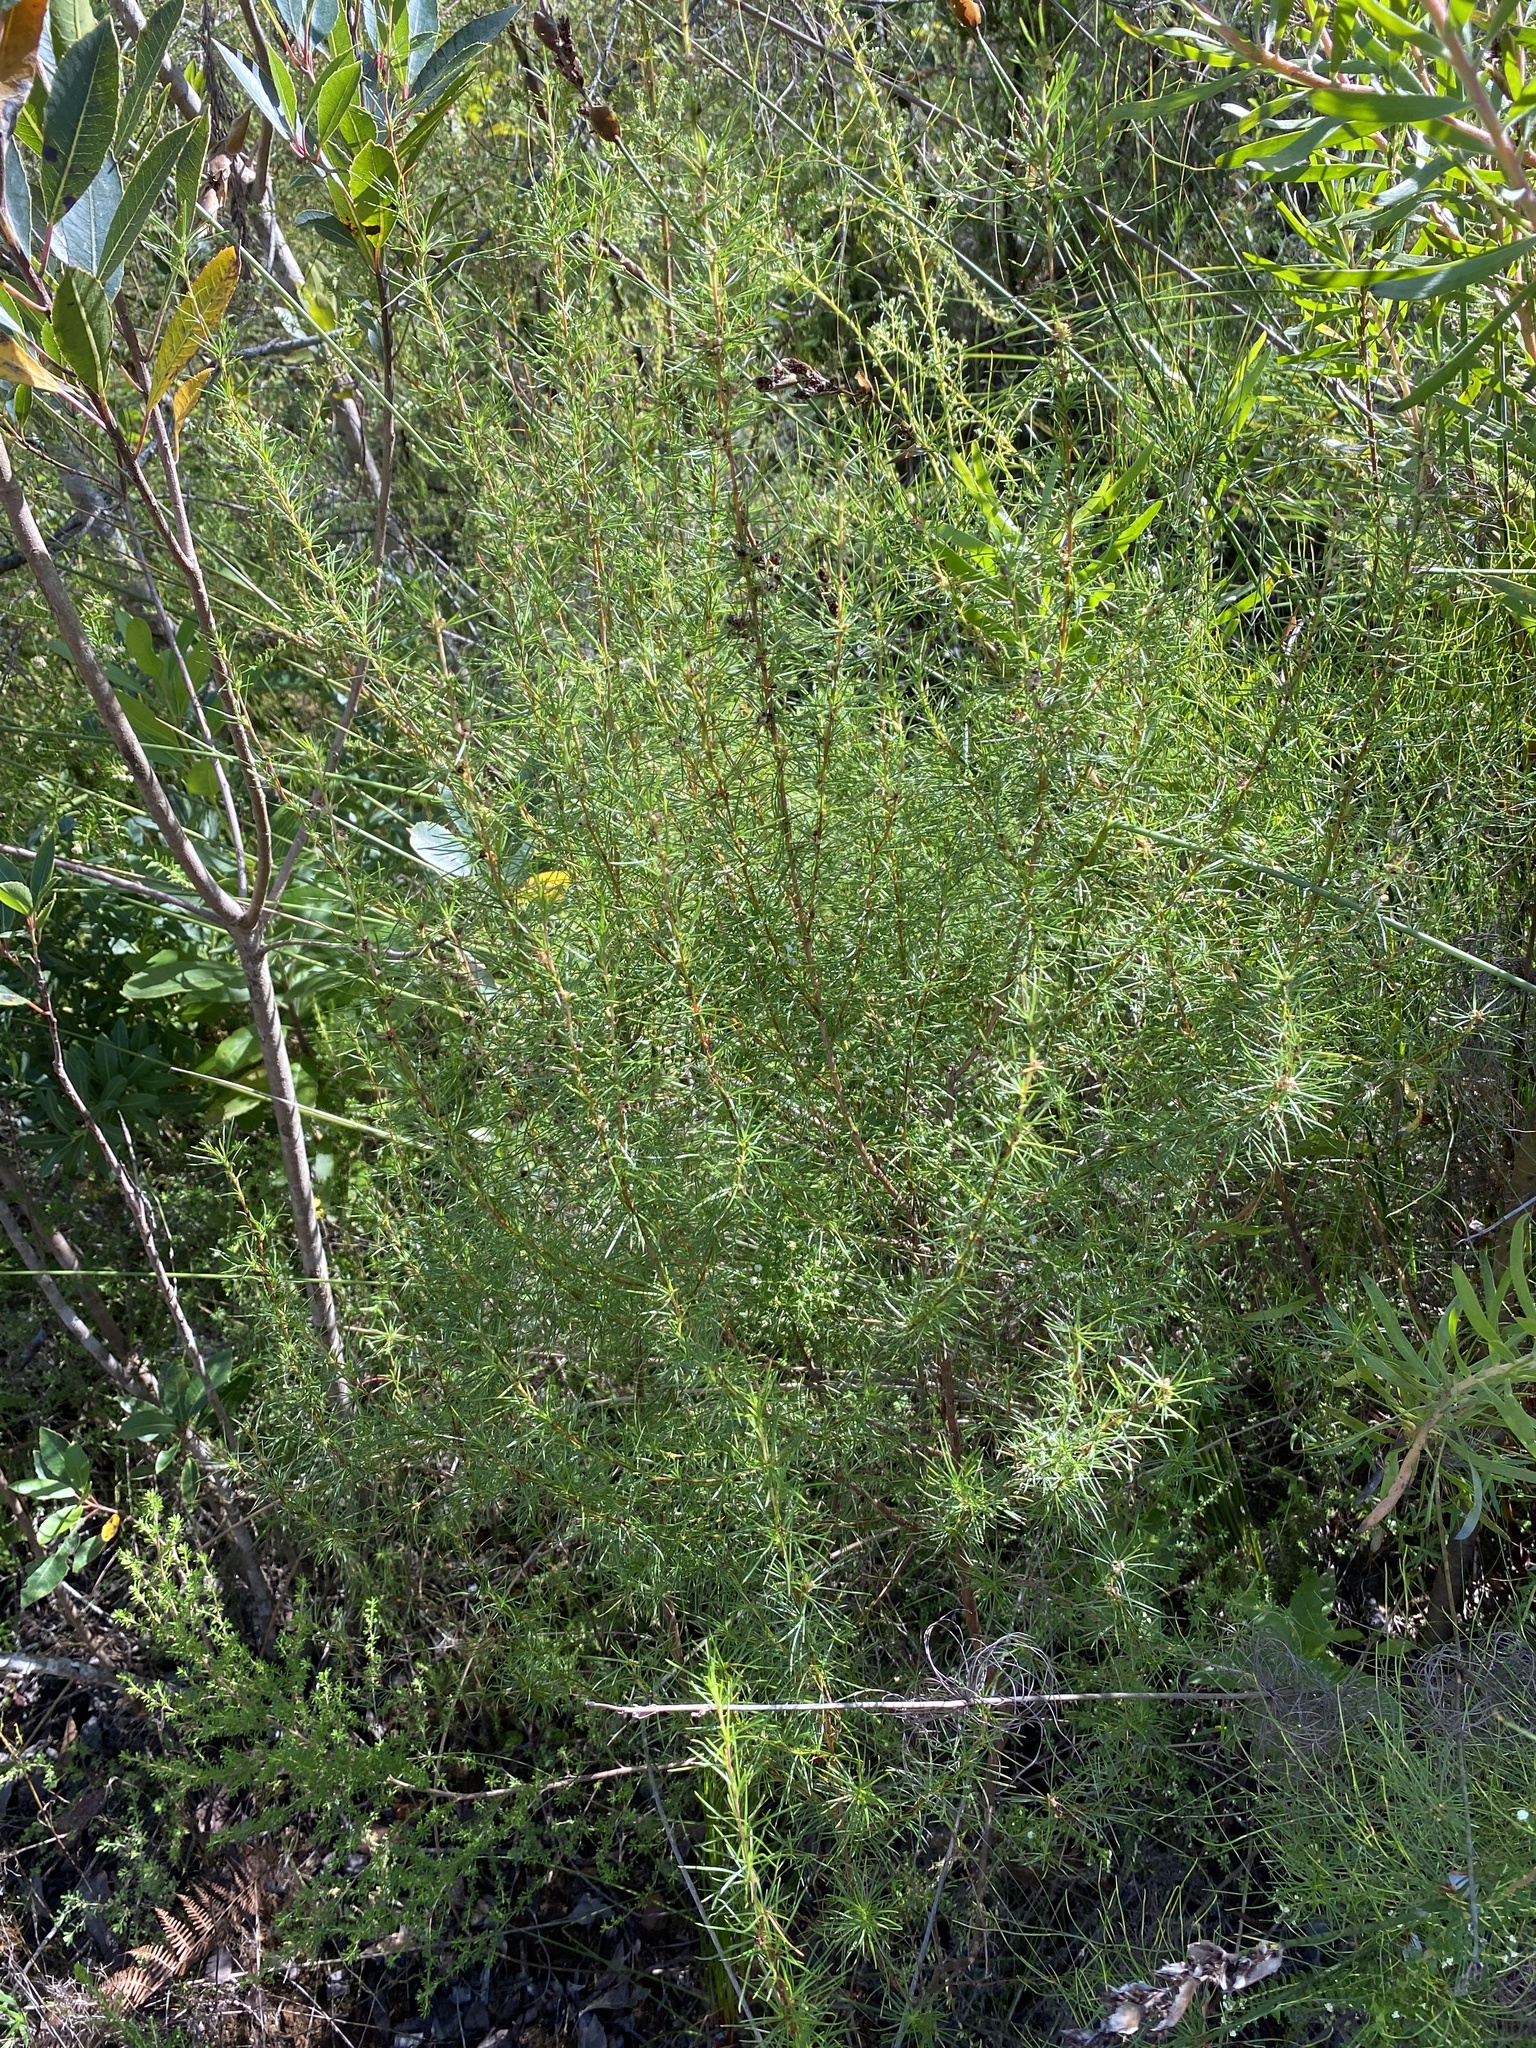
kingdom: Plantae
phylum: Tracheophyta
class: Magnoliopsida
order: Rosales
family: Rosaceae
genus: Cliffortia
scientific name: Cliffortia burchellii
